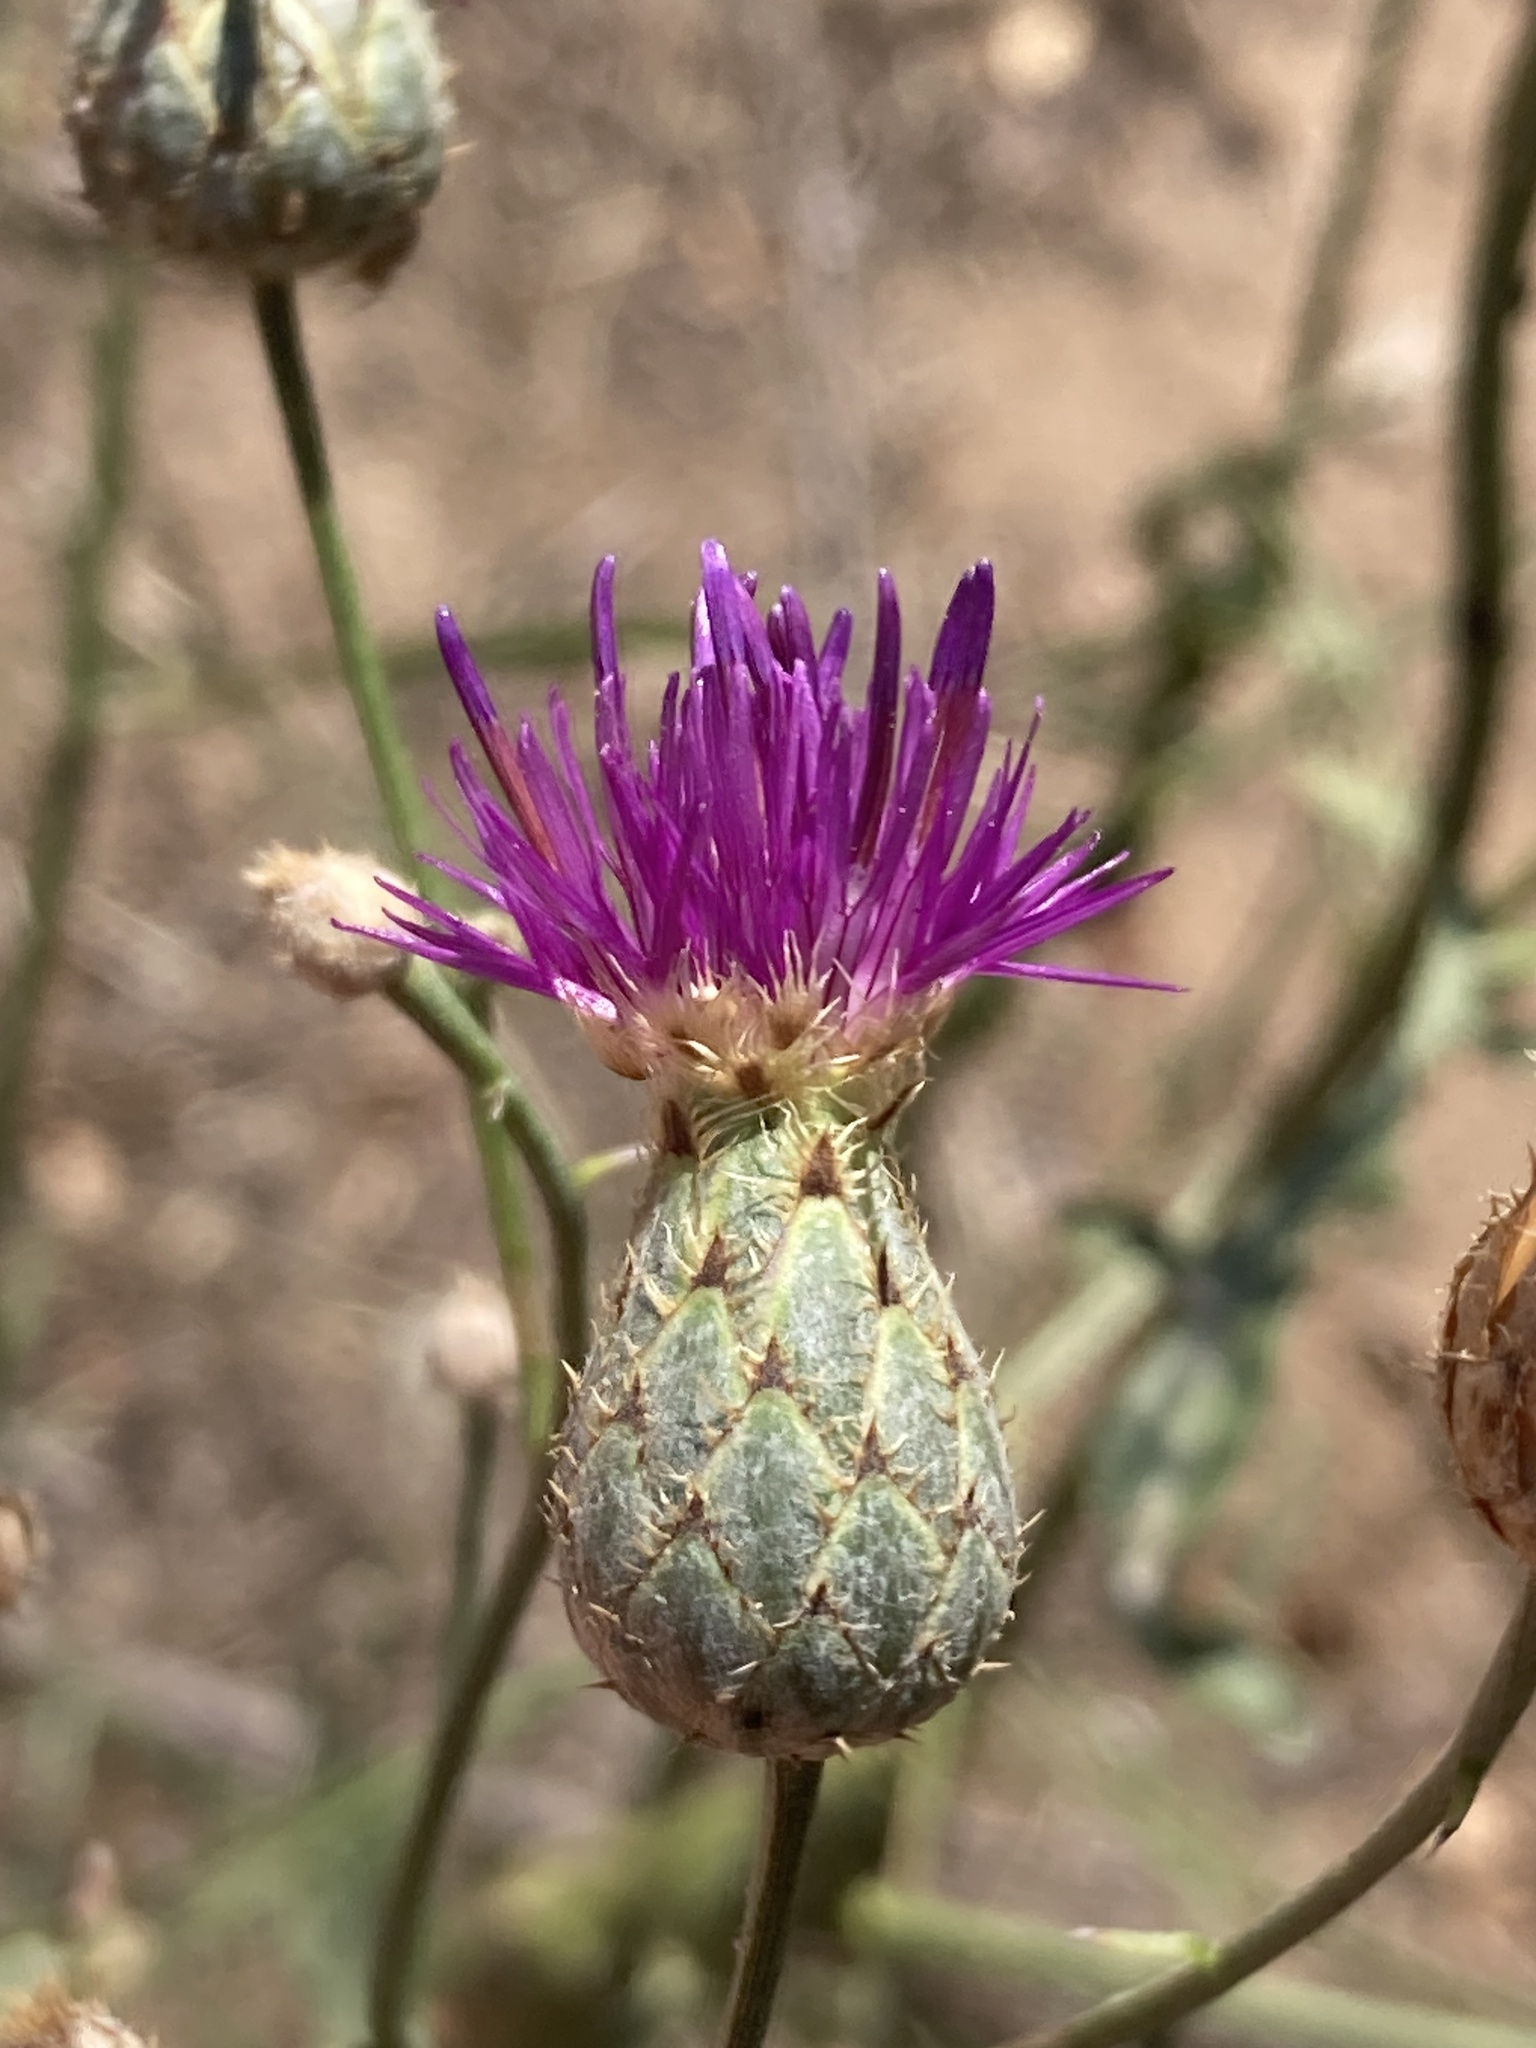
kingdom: Plantae
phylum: Tracheophyta
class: Magnoliopsida
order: Asterales
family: Asteraceae
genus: Centaurea
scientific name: Centaurea scabiosa
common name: Greater knapweed
